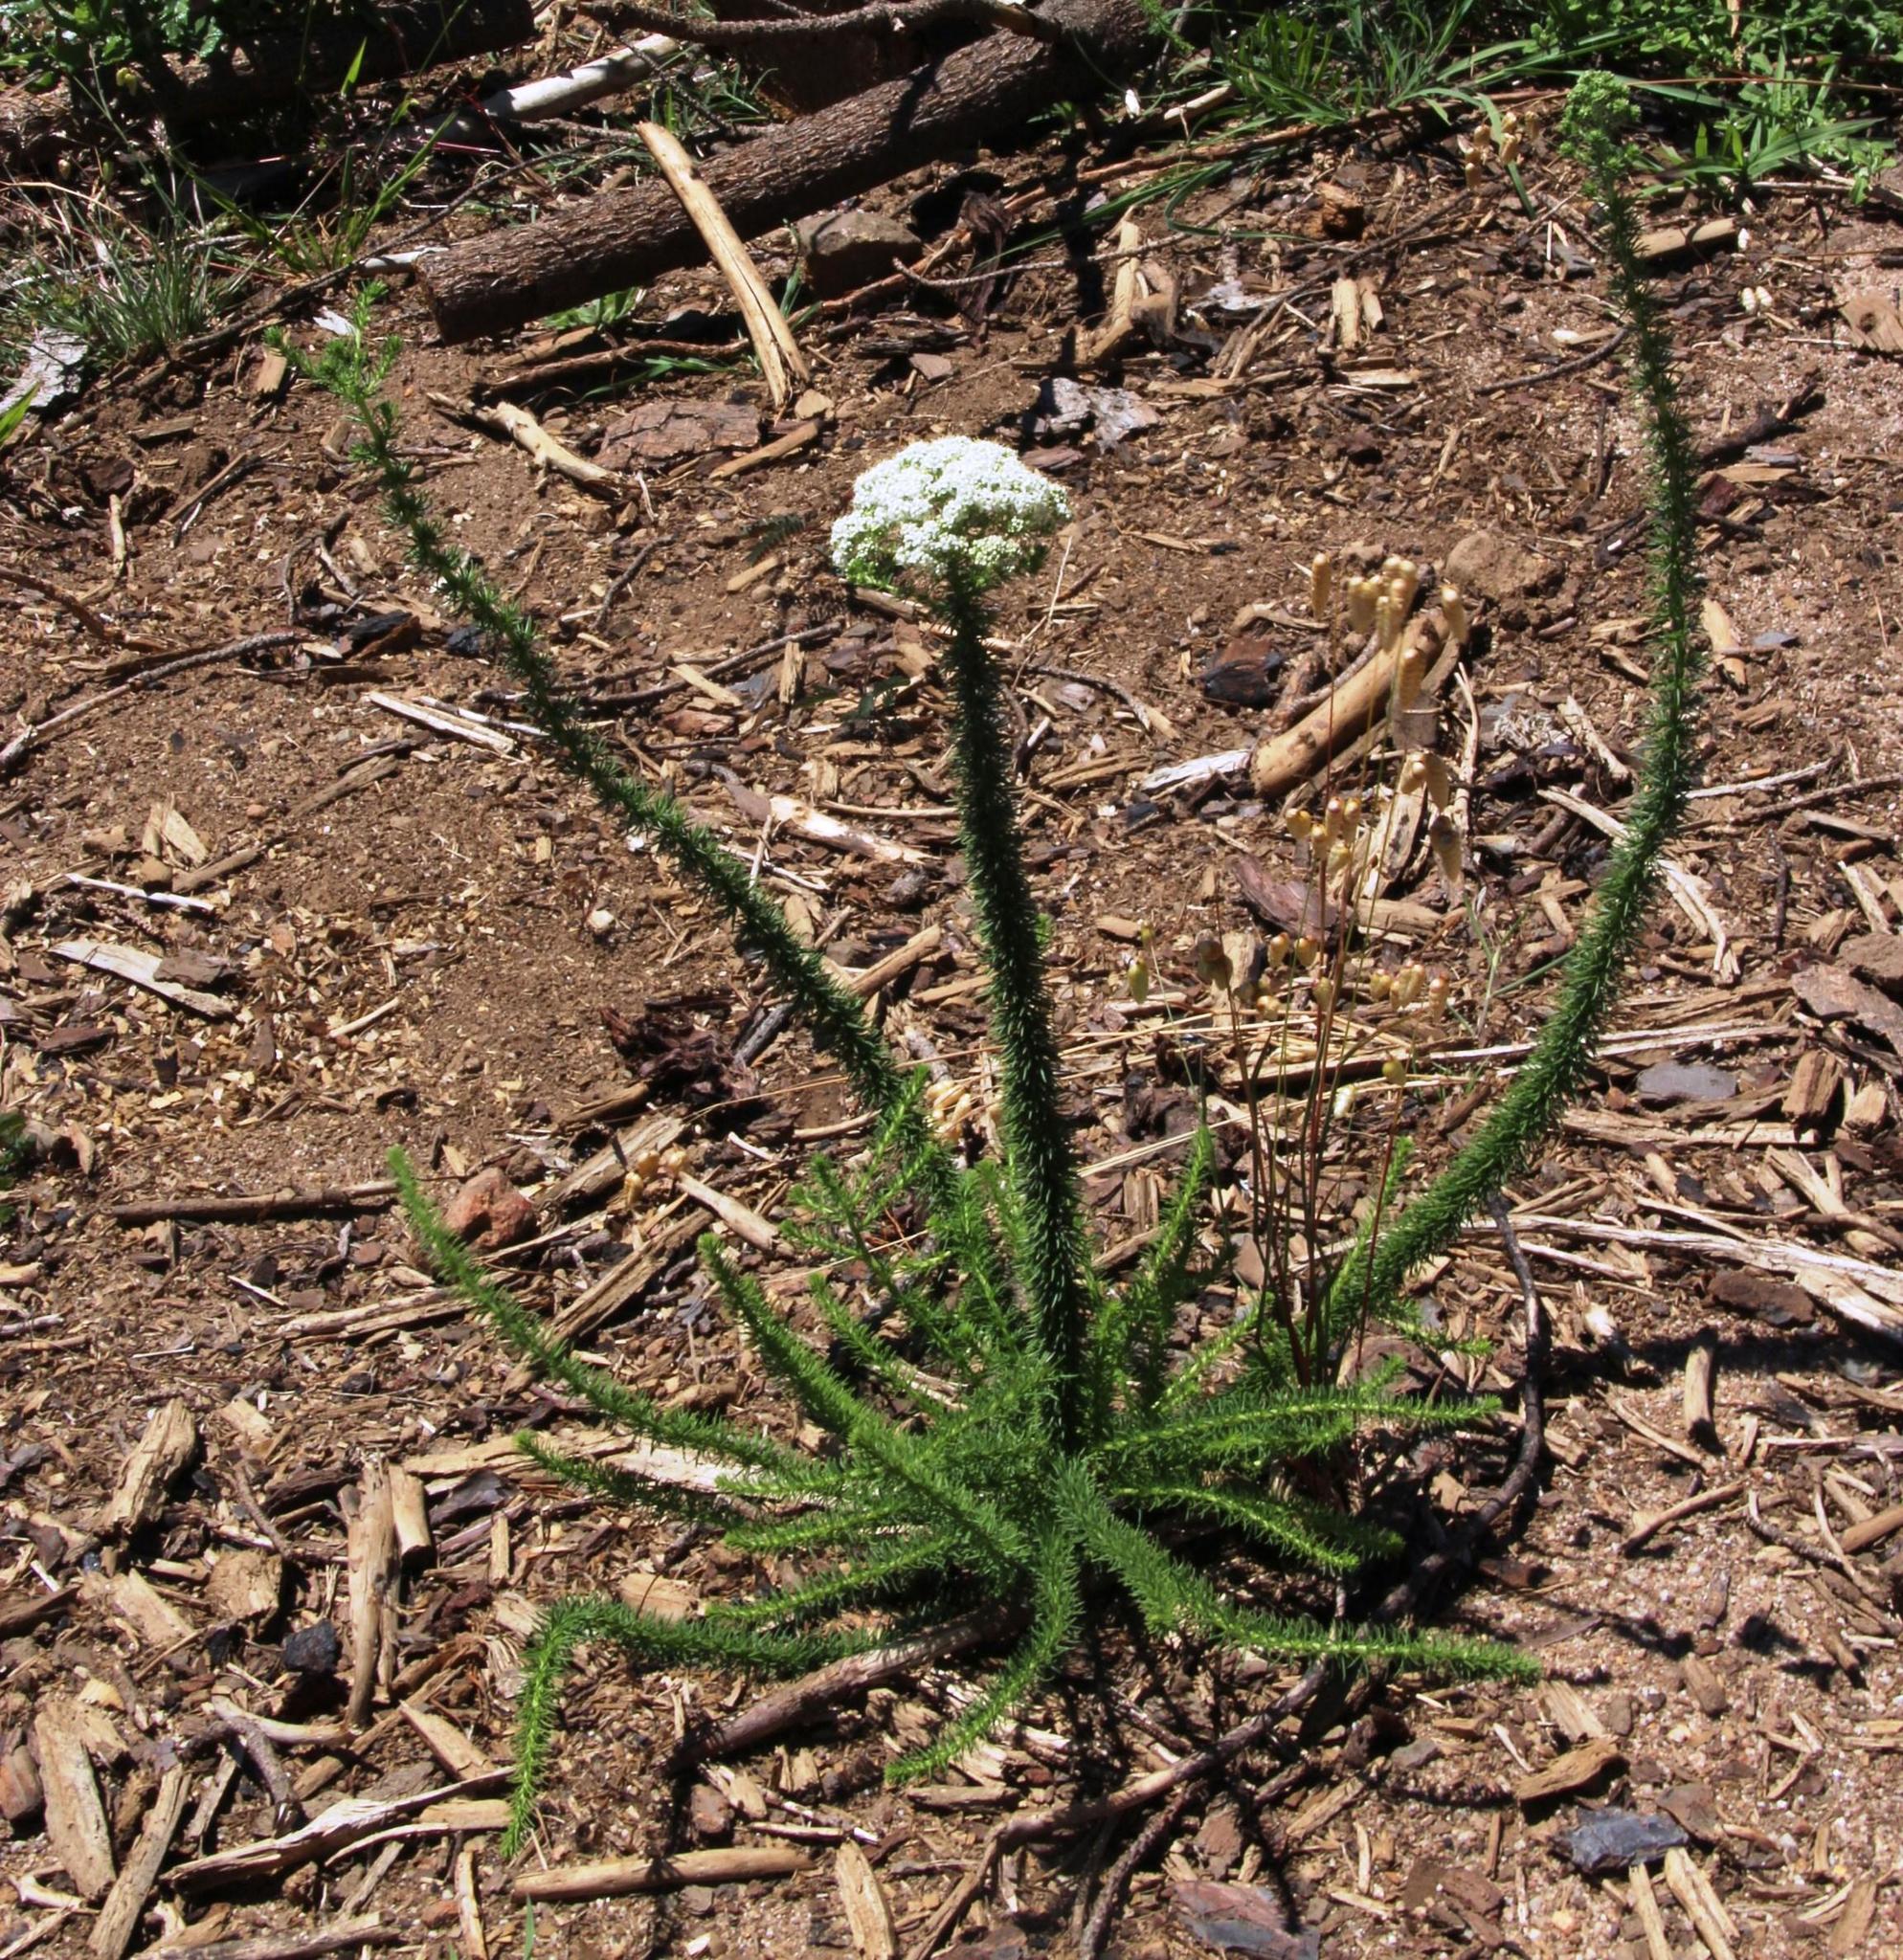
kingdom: Plantae
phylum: Tracheophyta
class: Magnoliopsida
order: Lamiales
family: Scrophulariaceae
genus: Selago
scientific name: Selago corymbosa
